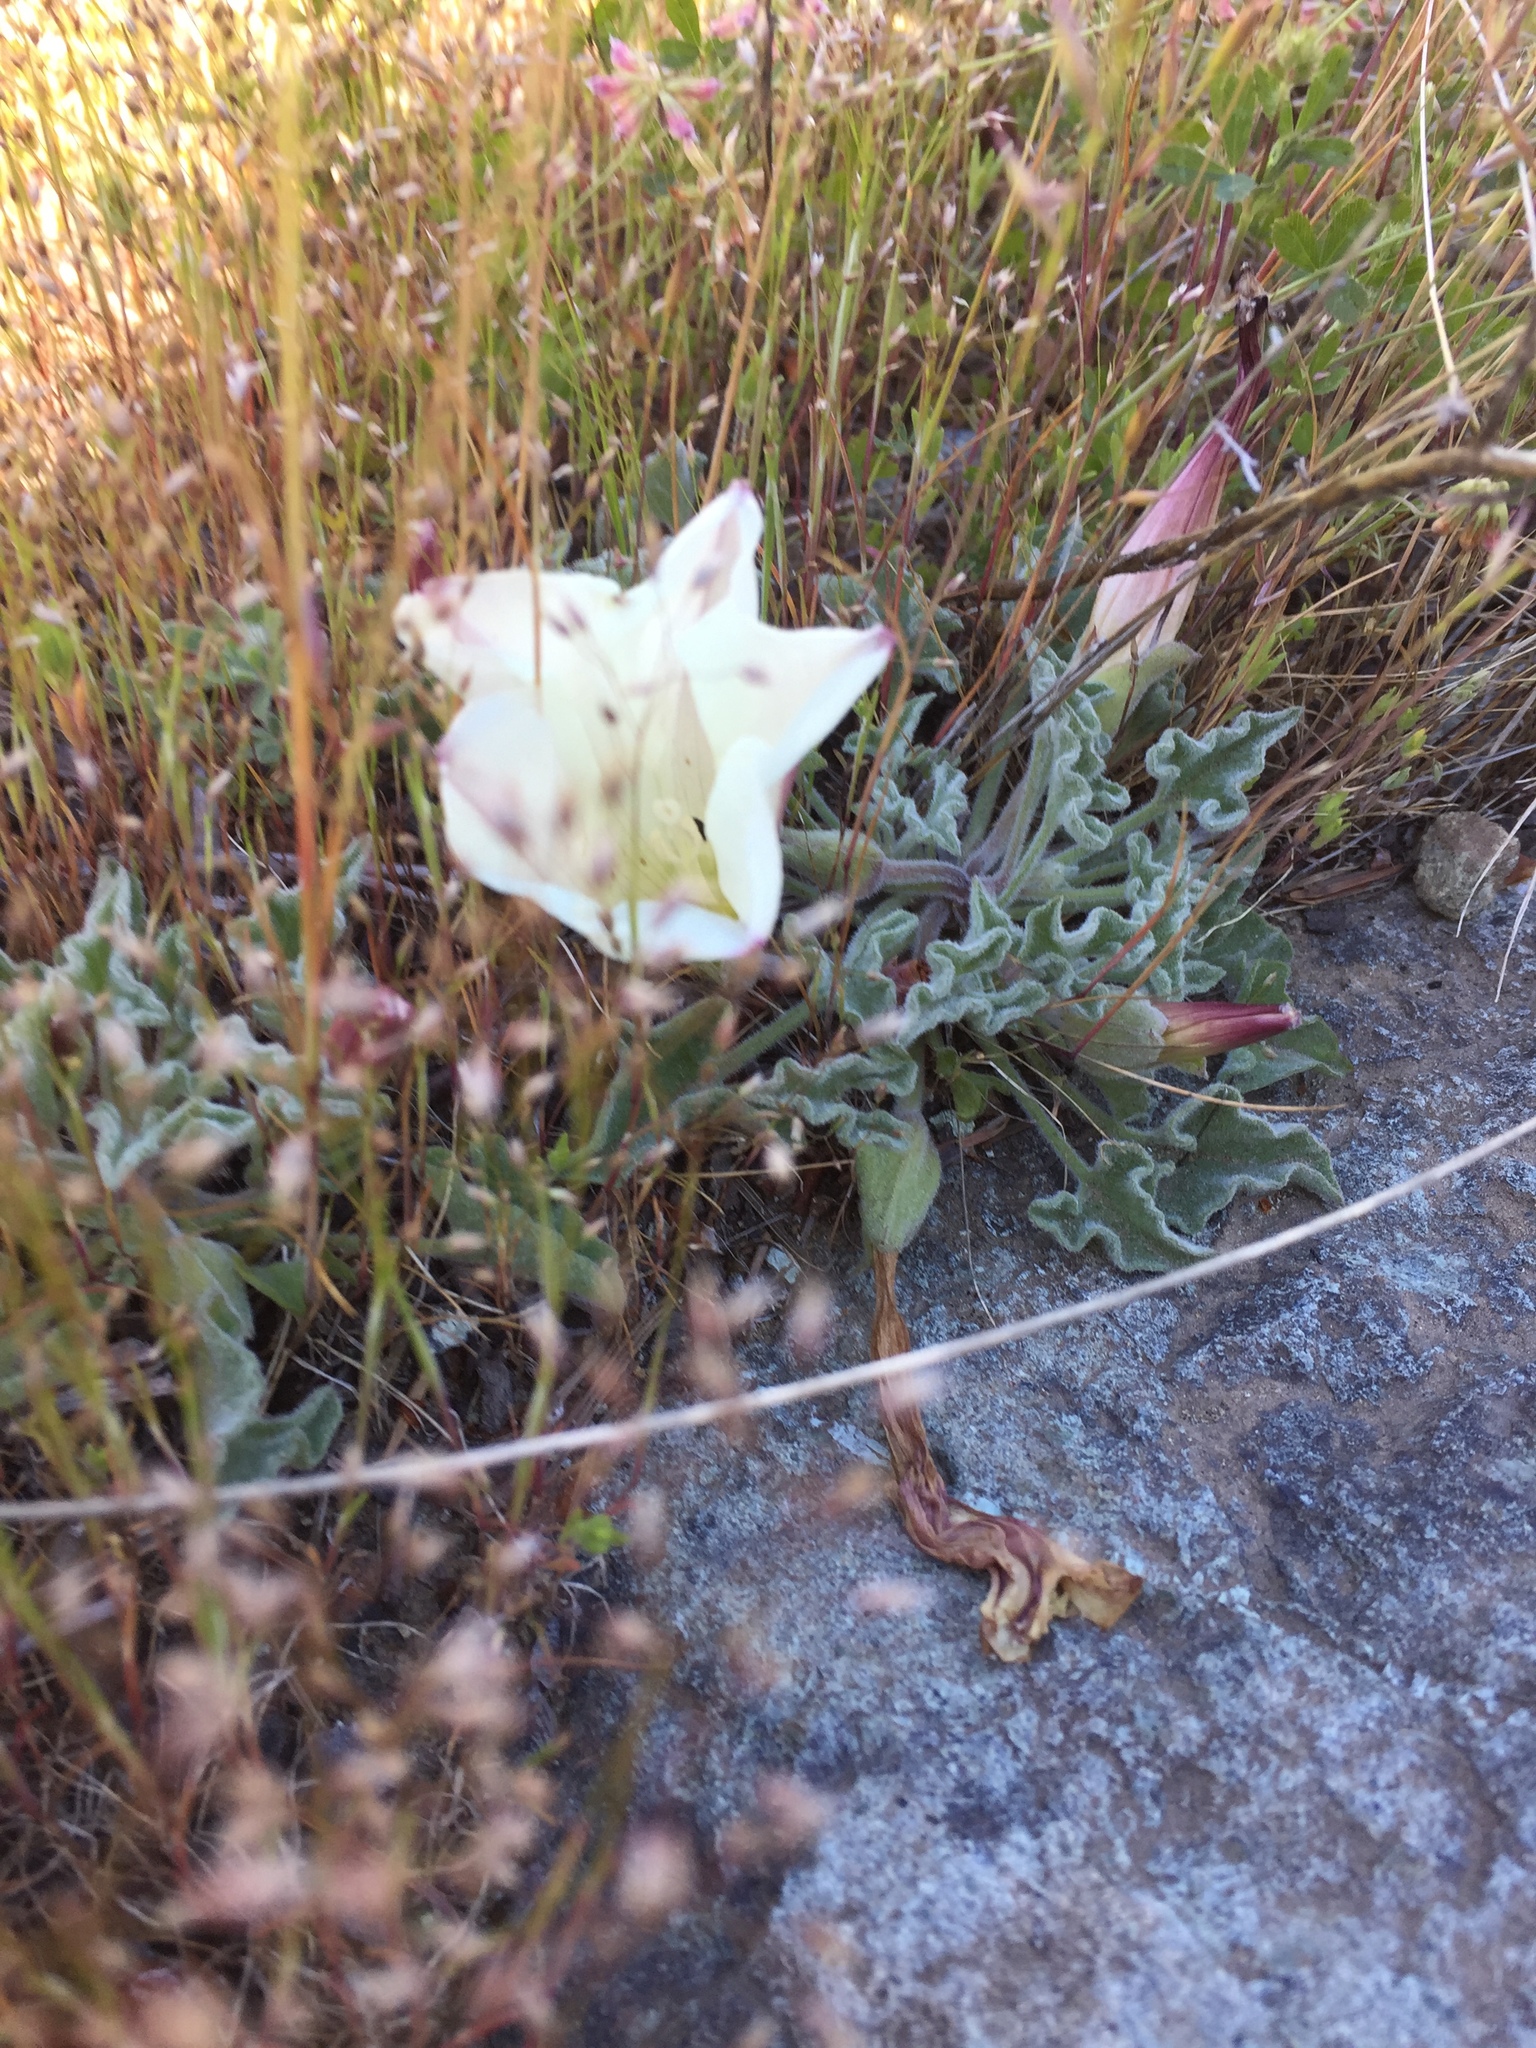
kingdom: Plantae
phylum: Tracheophyta
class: Magnoliopsida
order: Solanales
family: Convolvulaceae
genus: Calystegia
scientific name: Calystegia collina
